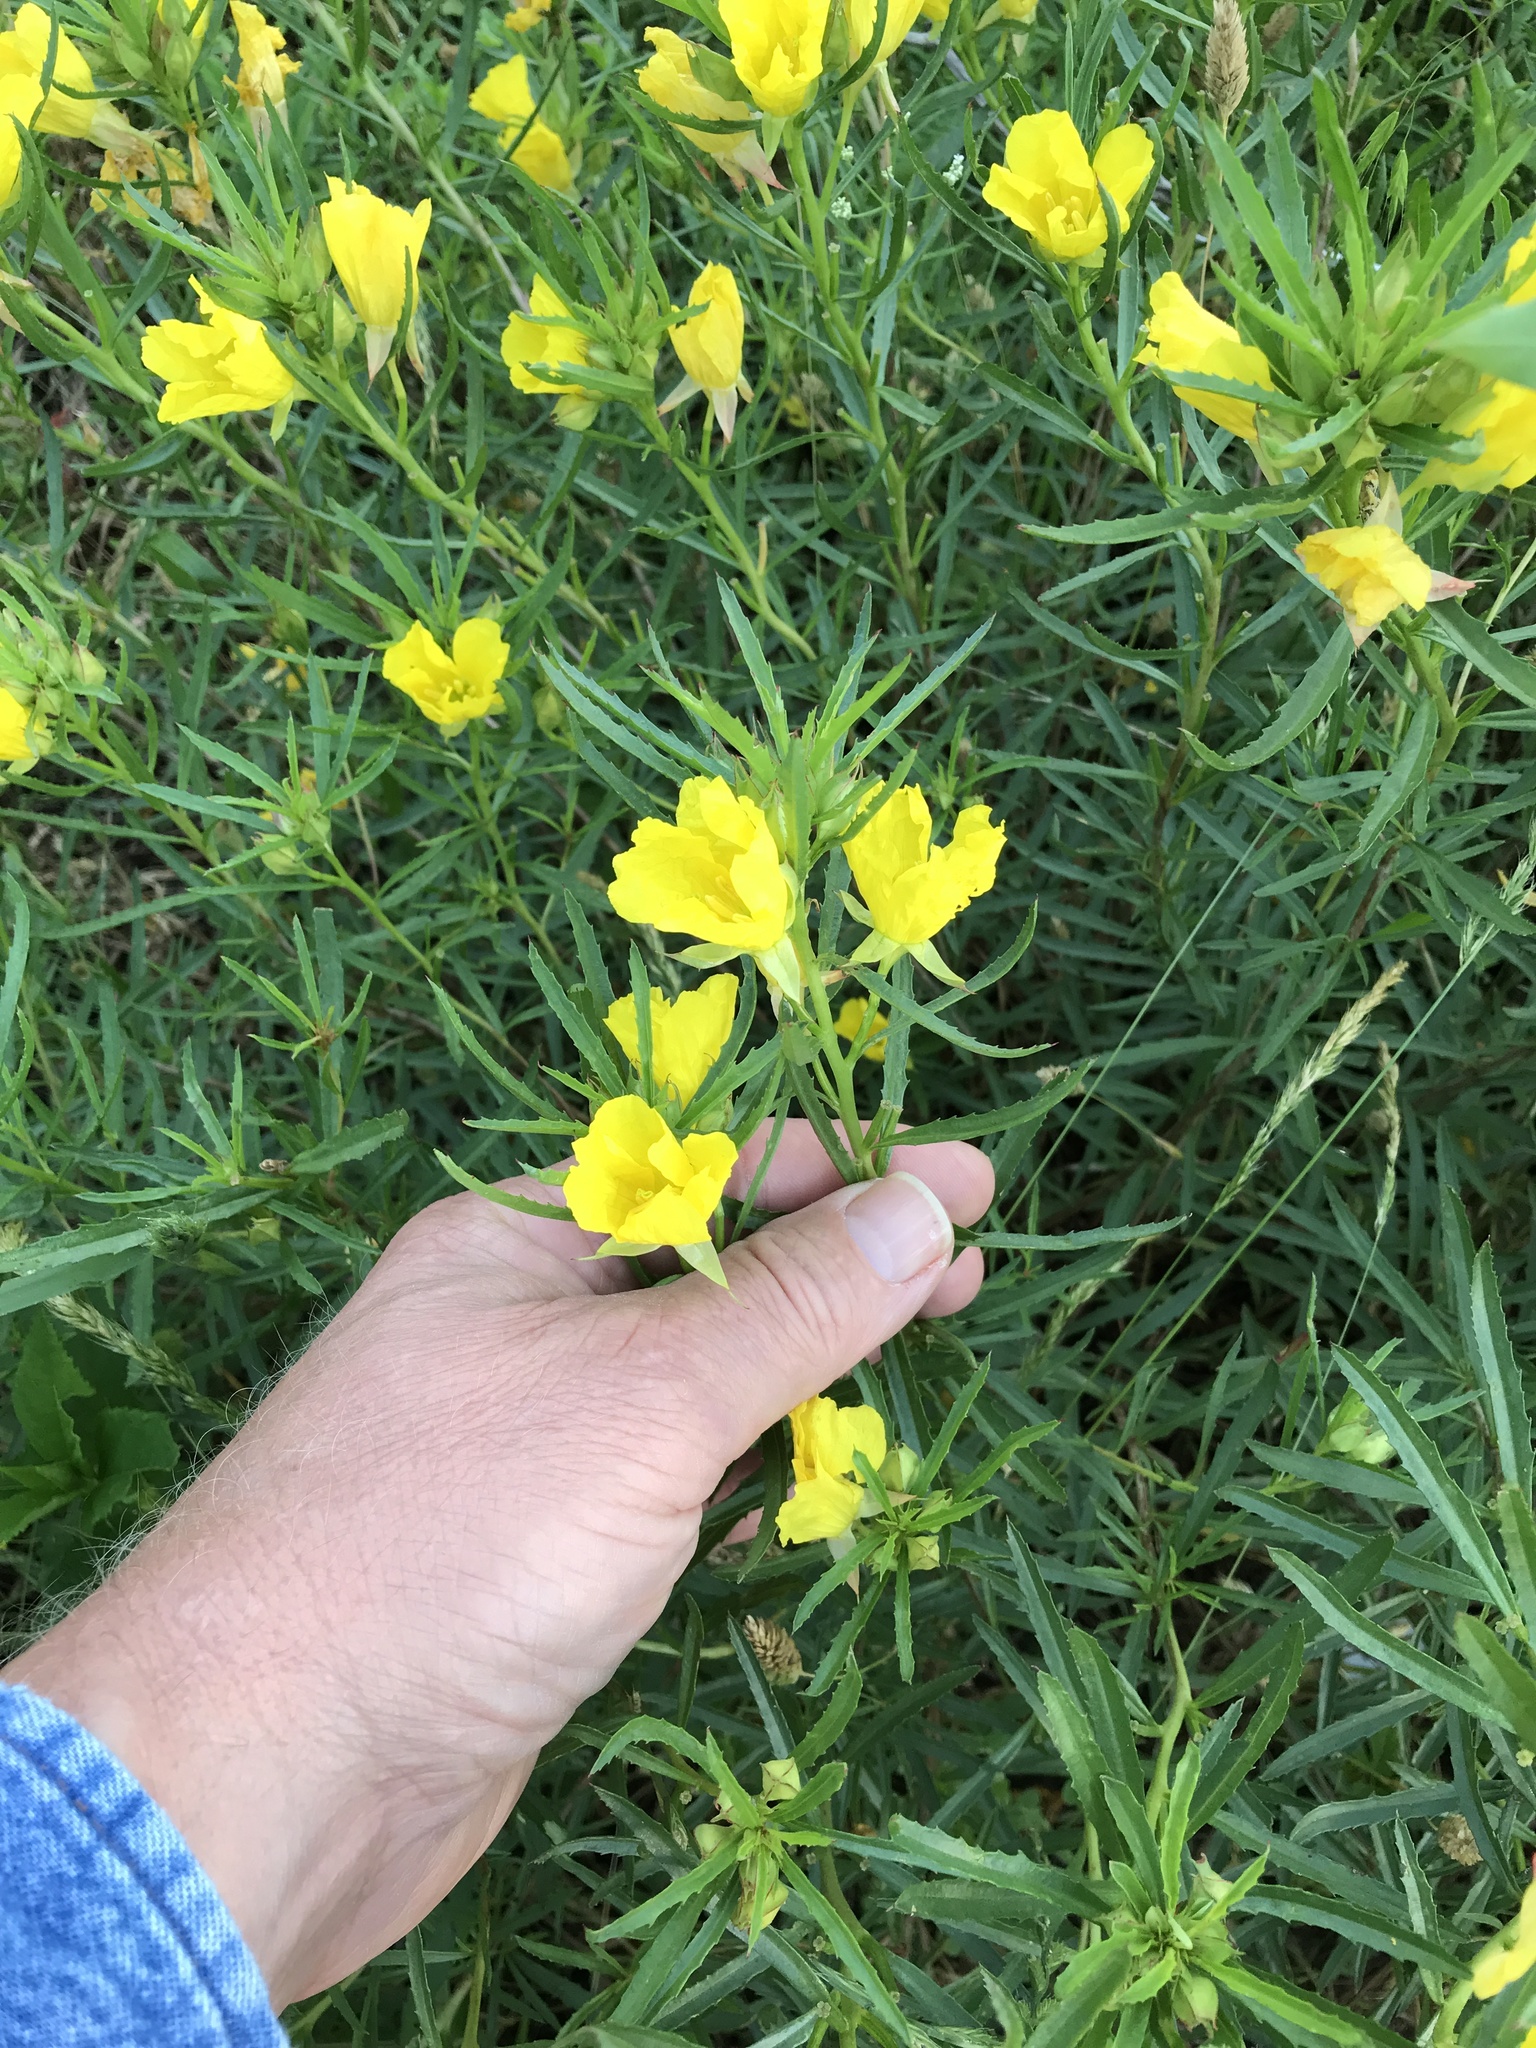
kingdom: Plantae
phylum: Tracheophyta
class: Magnoliopsida
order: Myrtales
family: Onagraceae
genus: Oenothera
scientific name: Oenothera
